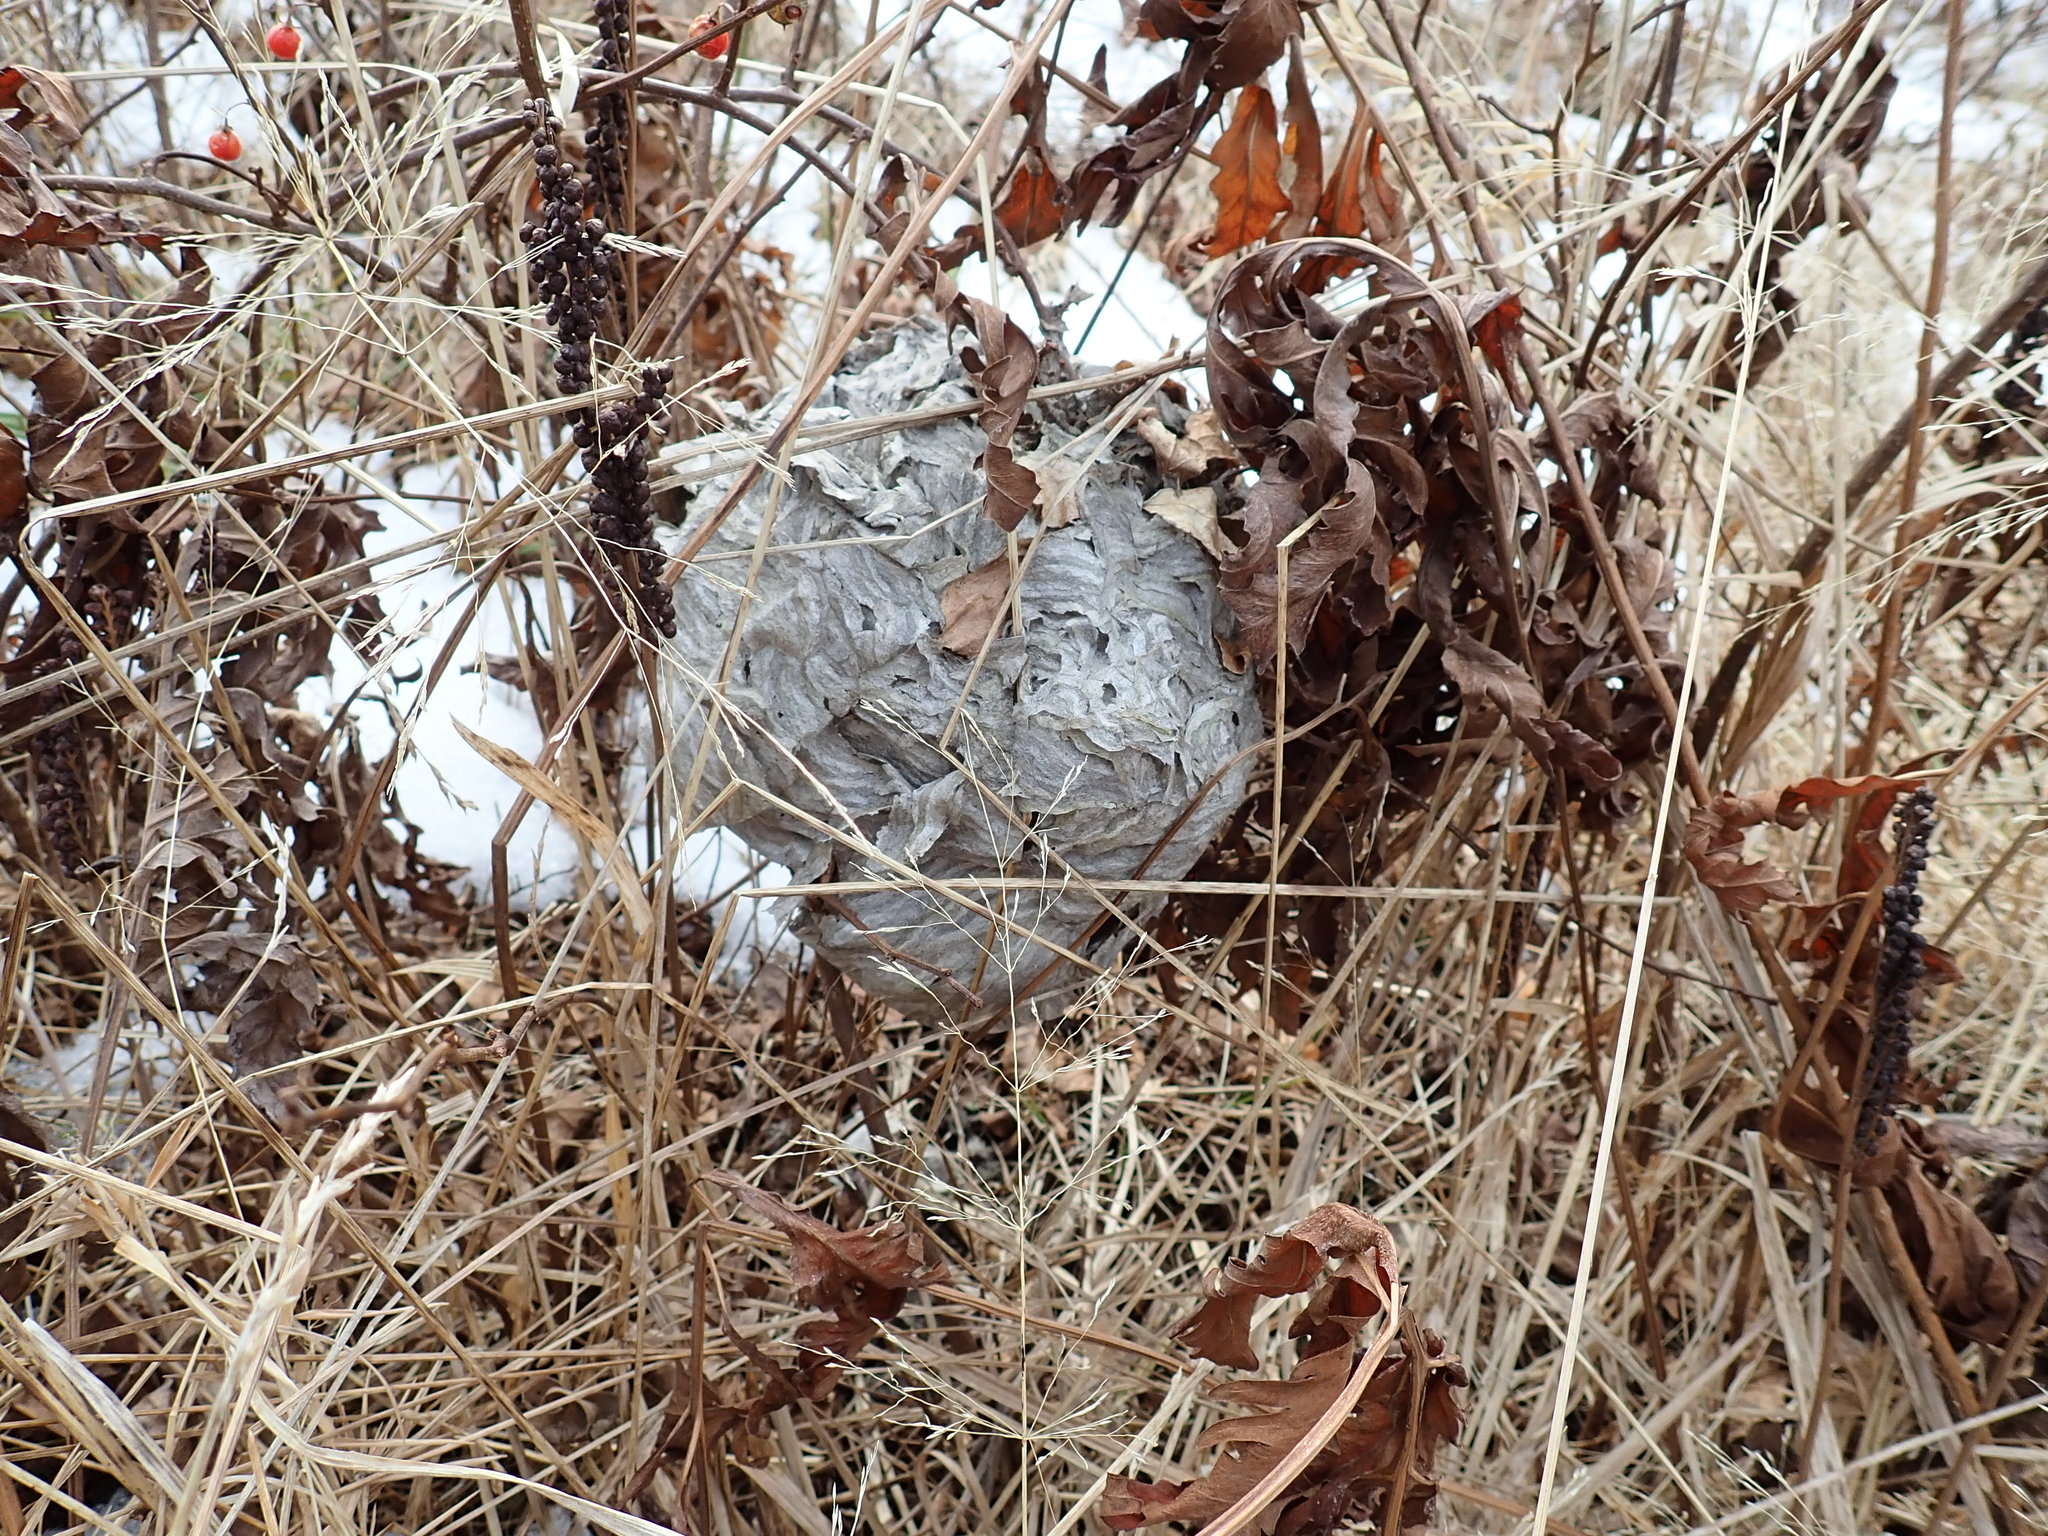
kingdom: Animalia
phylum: Arthropoda
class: Insecta
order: Hymenoptera
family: Vespidae
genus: Dolichovespula
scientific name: Dolichovespula maculata
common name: Bald-faced hornet
